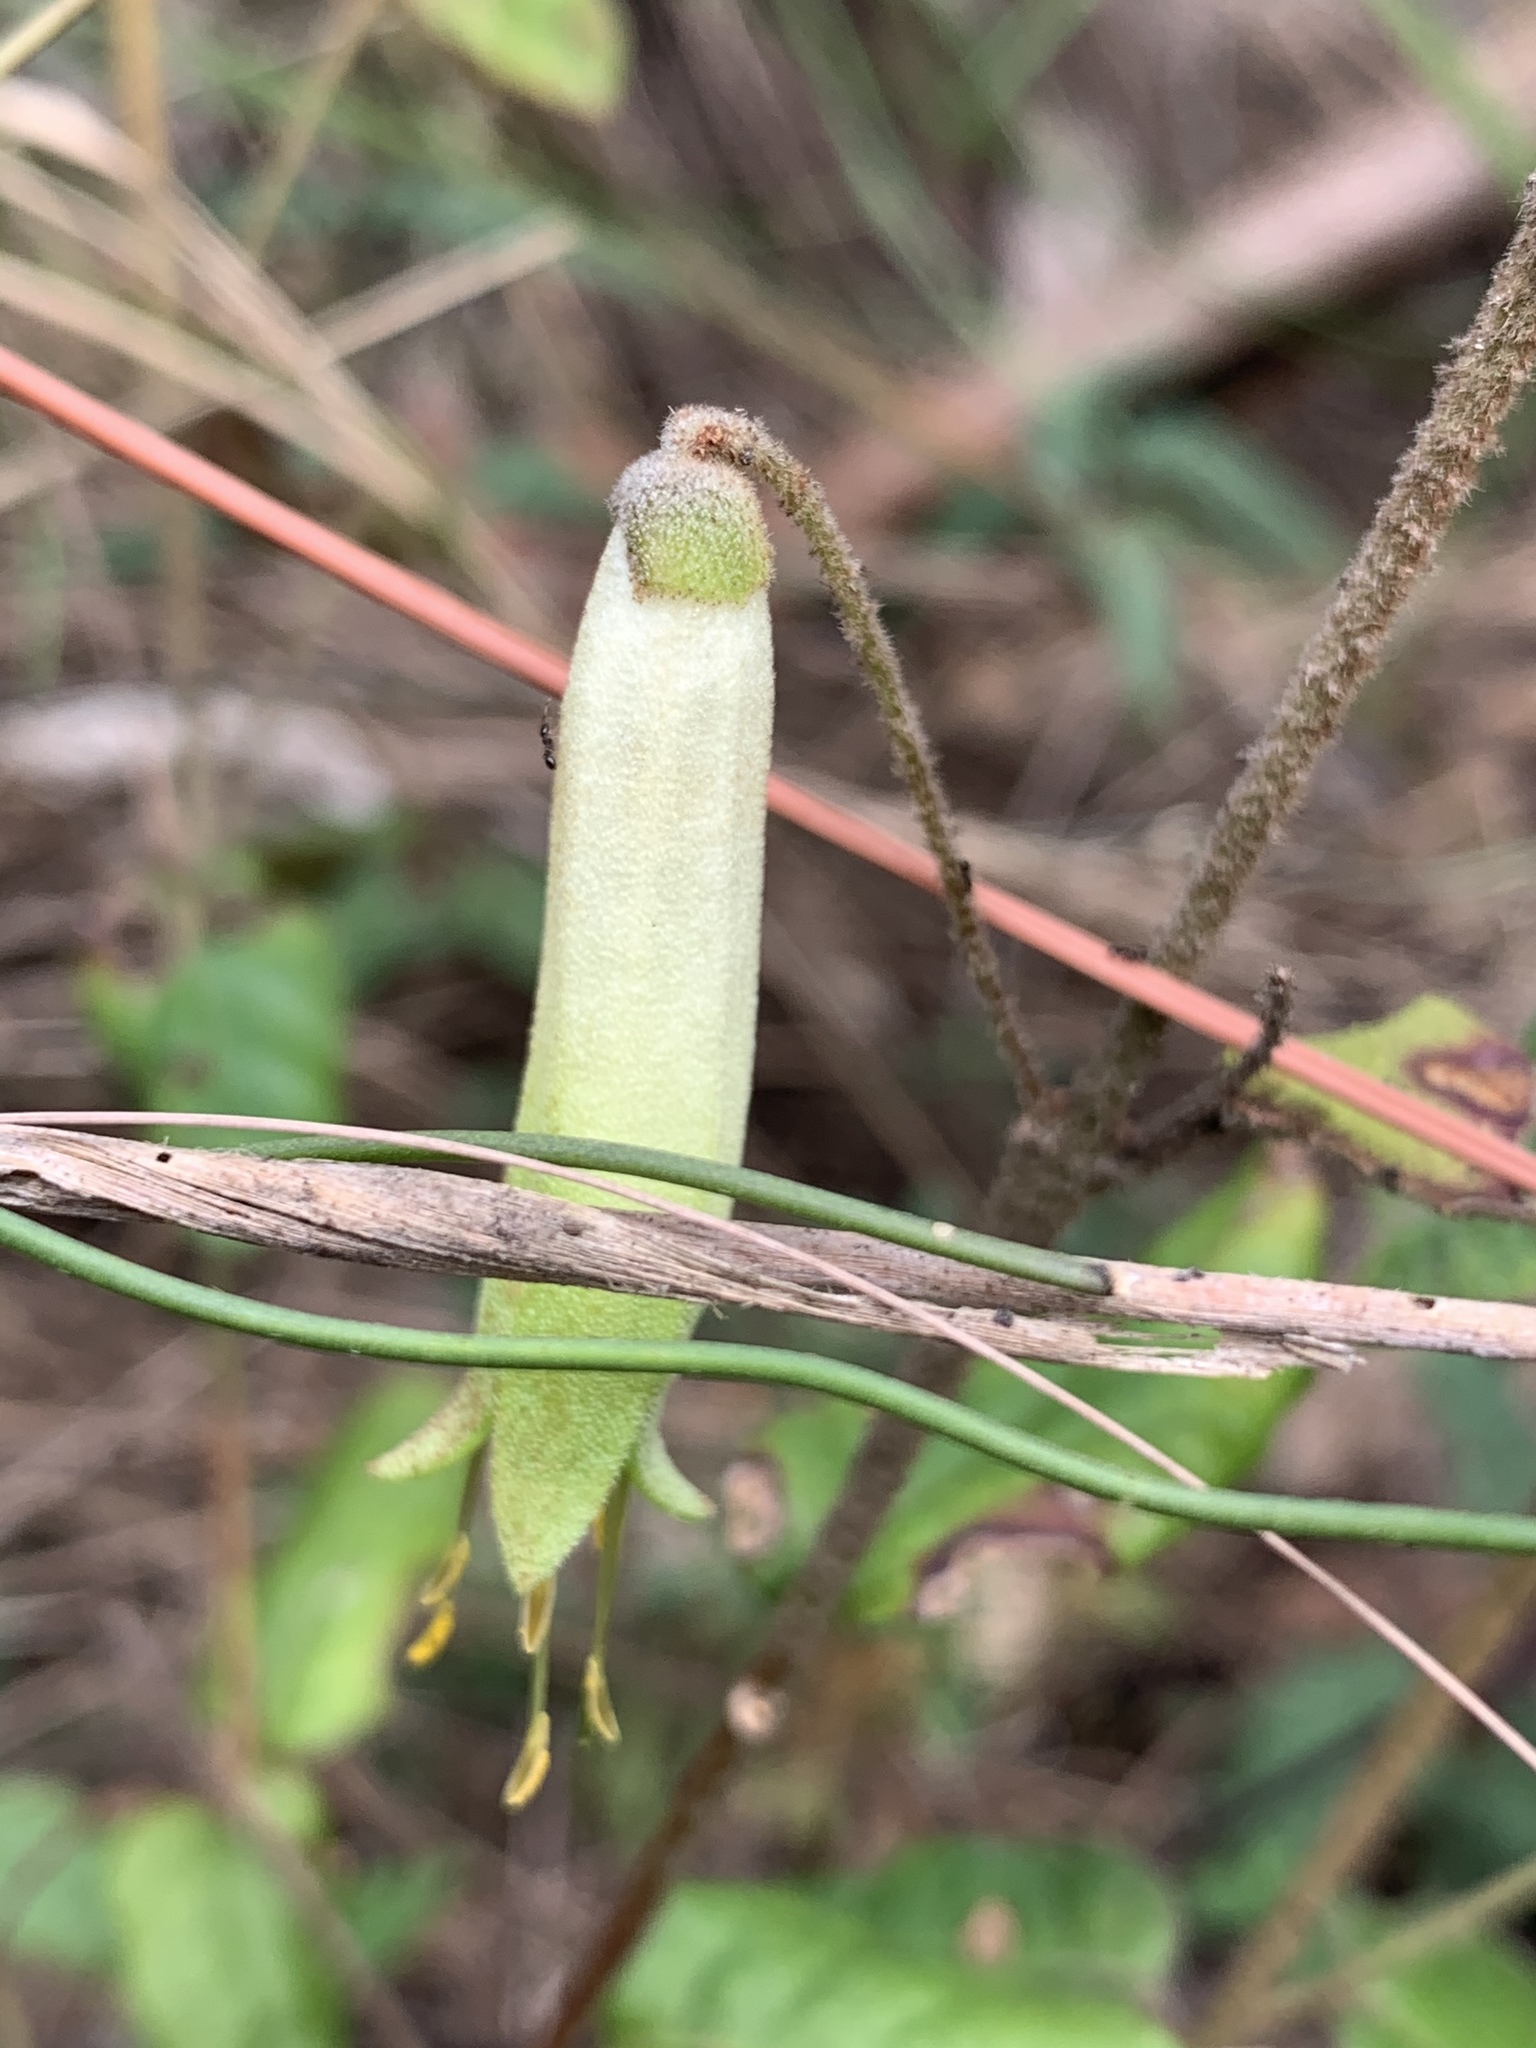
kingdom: Plantae
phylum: Tracheophyta
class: Magnoliopsida
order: Sapindales
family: Rutaceae
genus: Correa
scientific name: Correa reflexa
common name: Common correa
